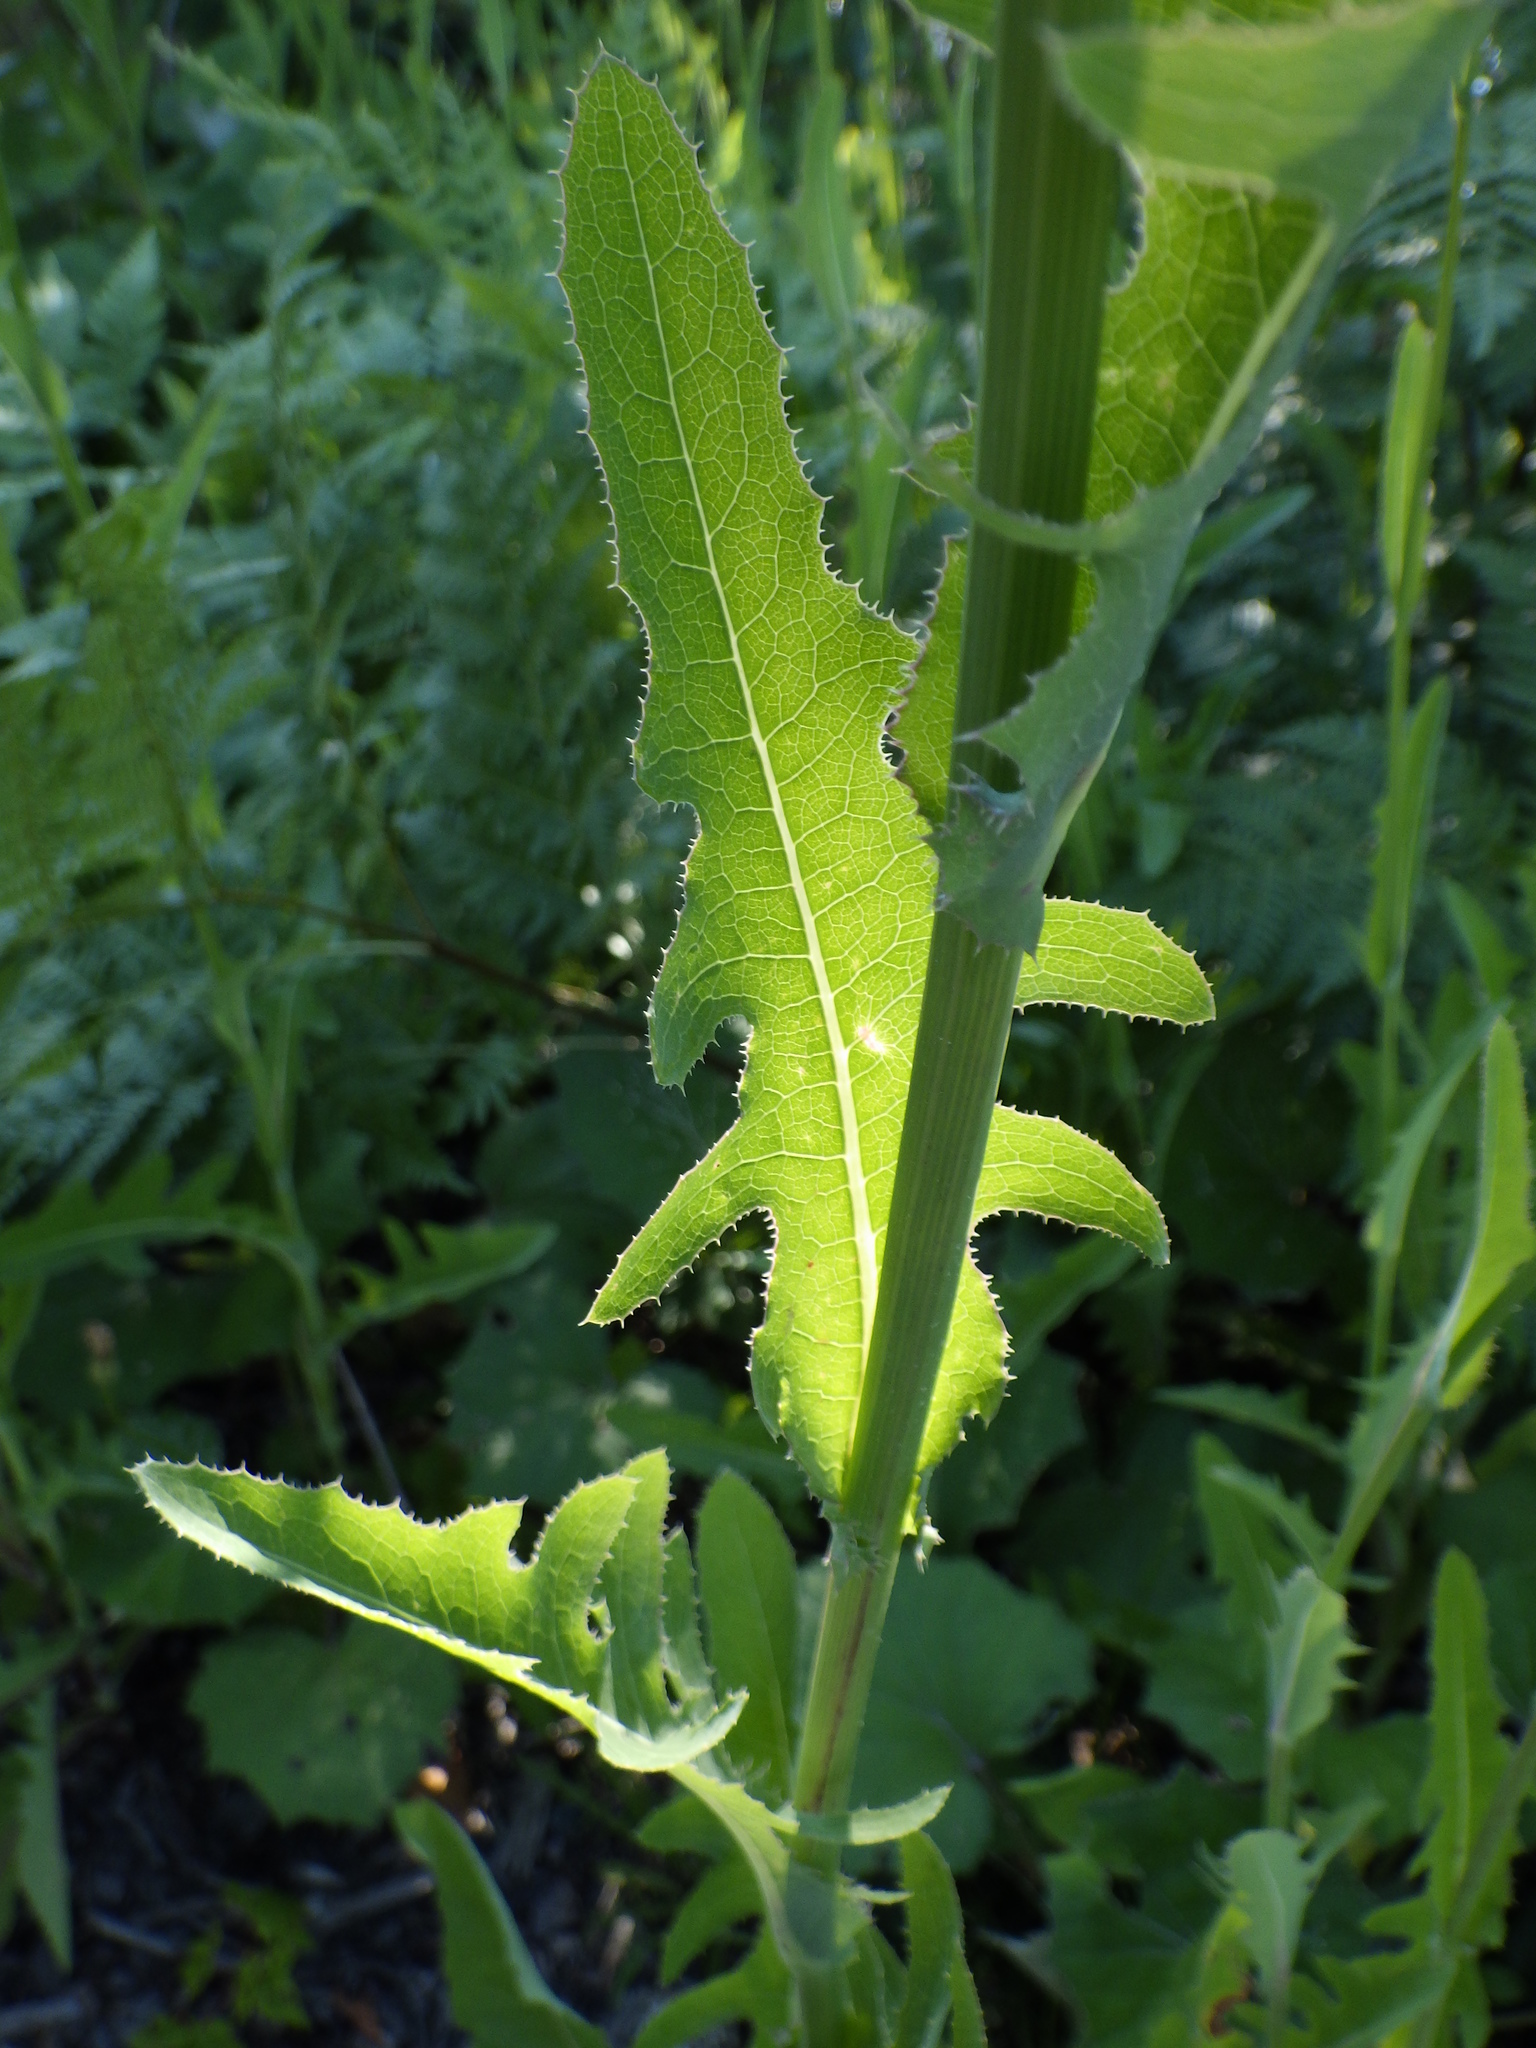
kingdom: Plantae
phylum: Tracheophyta
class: Magnoliopsida
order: Asterales
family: Asteraceae
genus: Sonchus
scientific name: Sonchus arvensis
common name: Perennial sow-thistle
